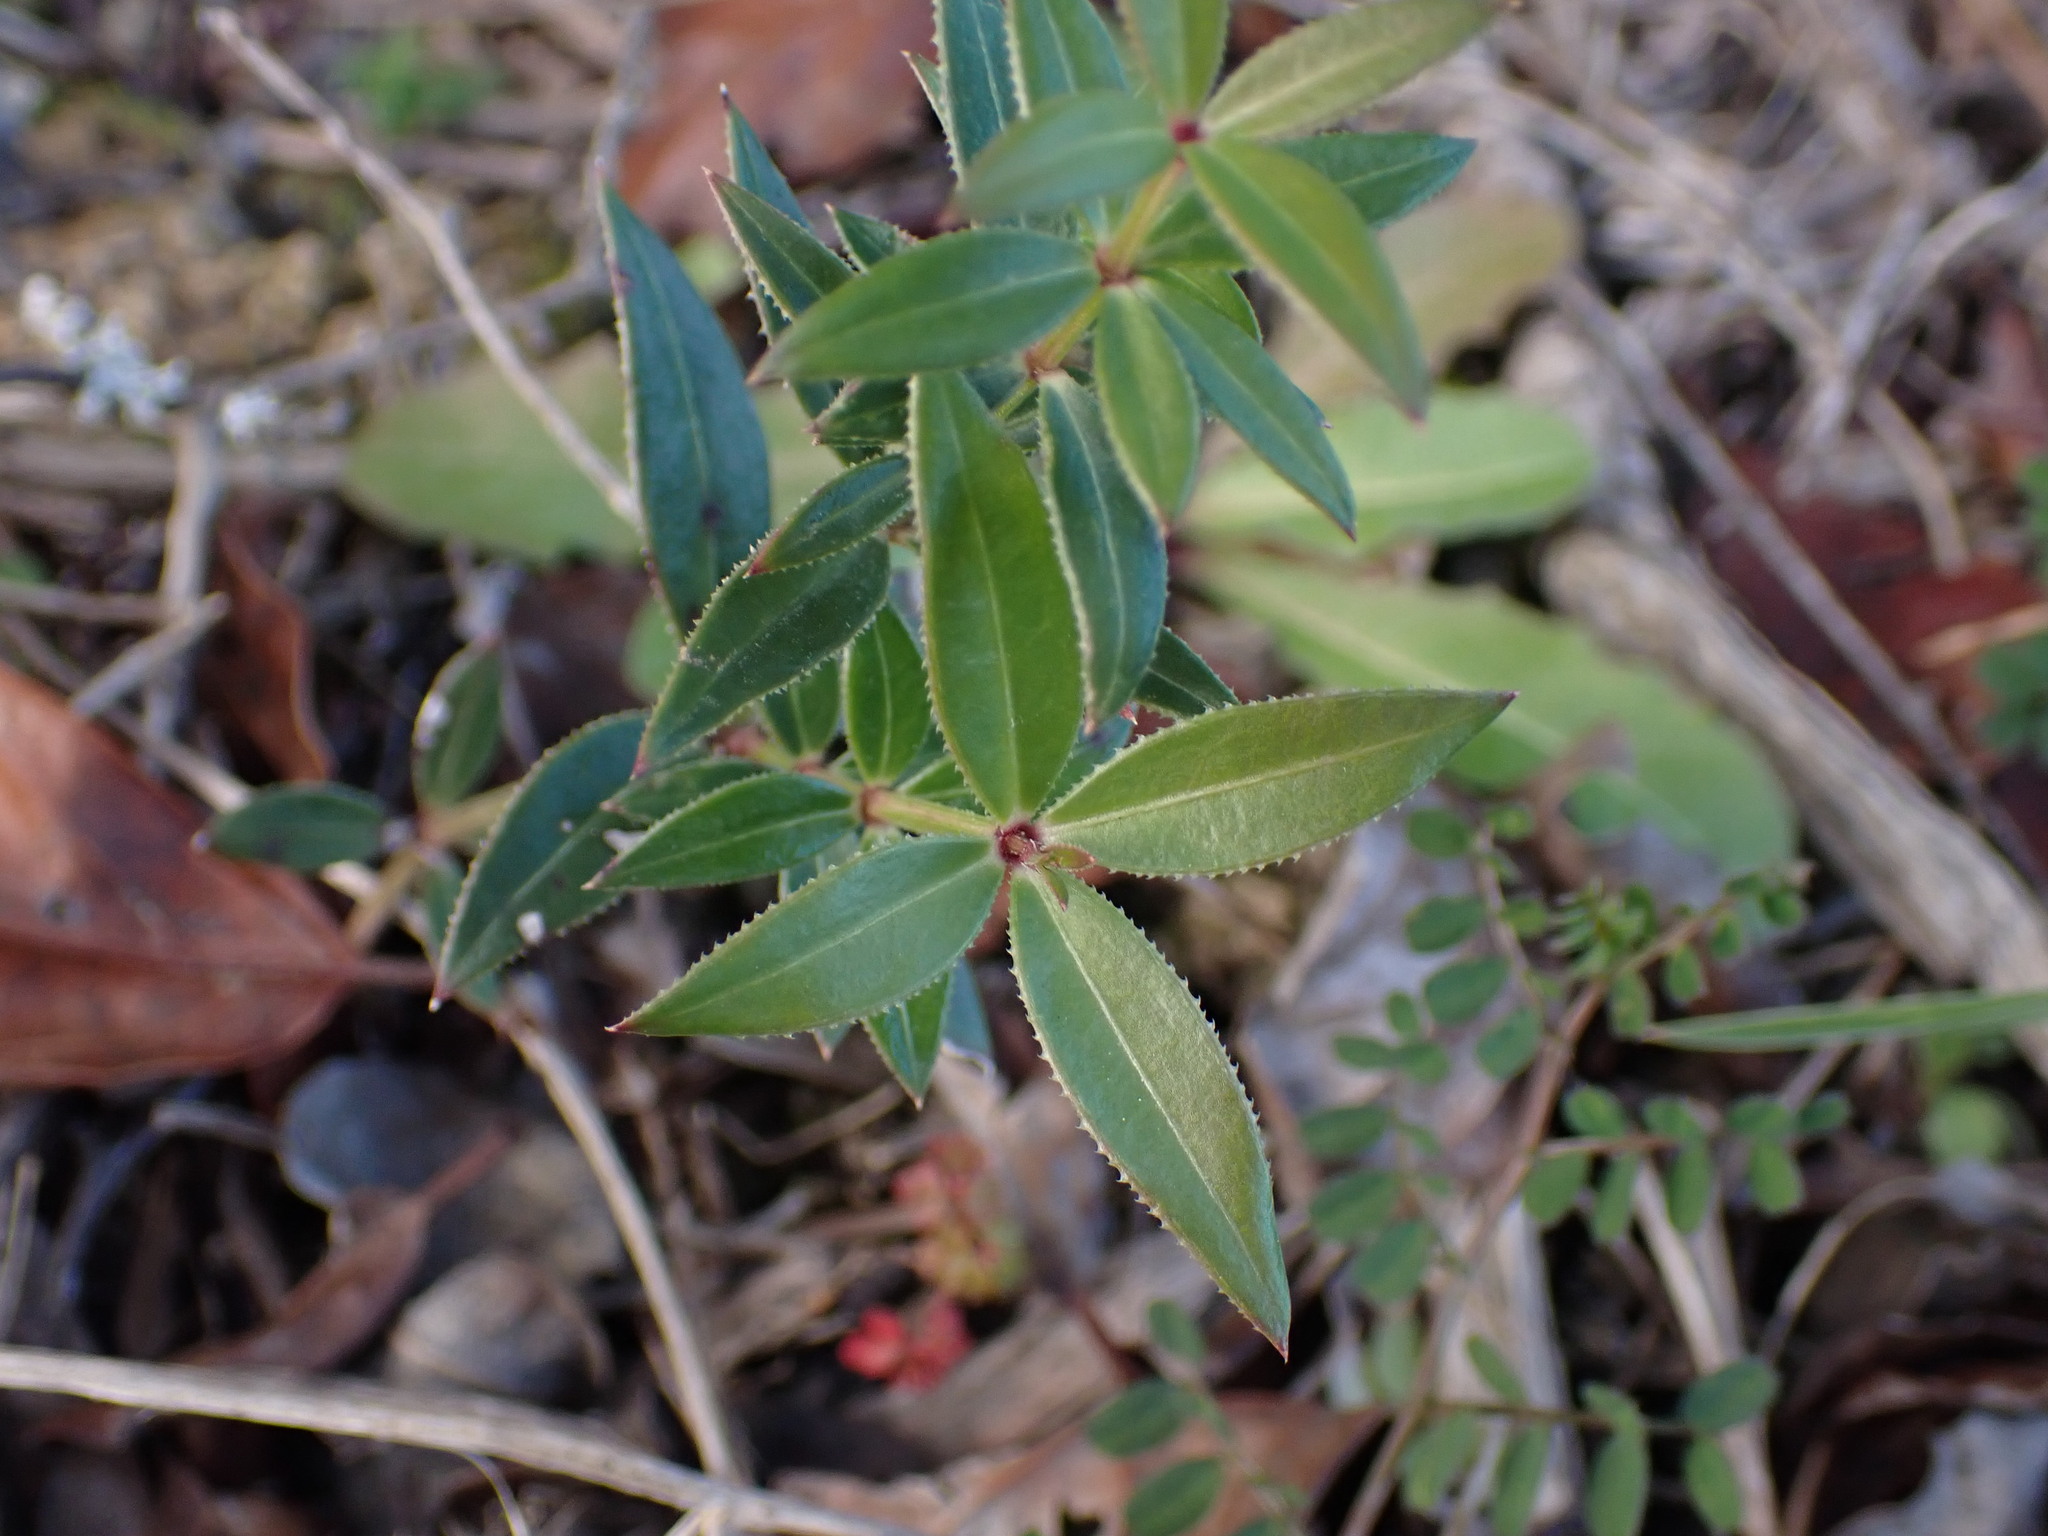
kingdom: Plantae
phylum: Tracheophyta
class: Magnoliopsida
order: Gentianales
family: Rubiaceae
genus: Rubia
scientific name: Rubia peregrina
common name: Wild madder
